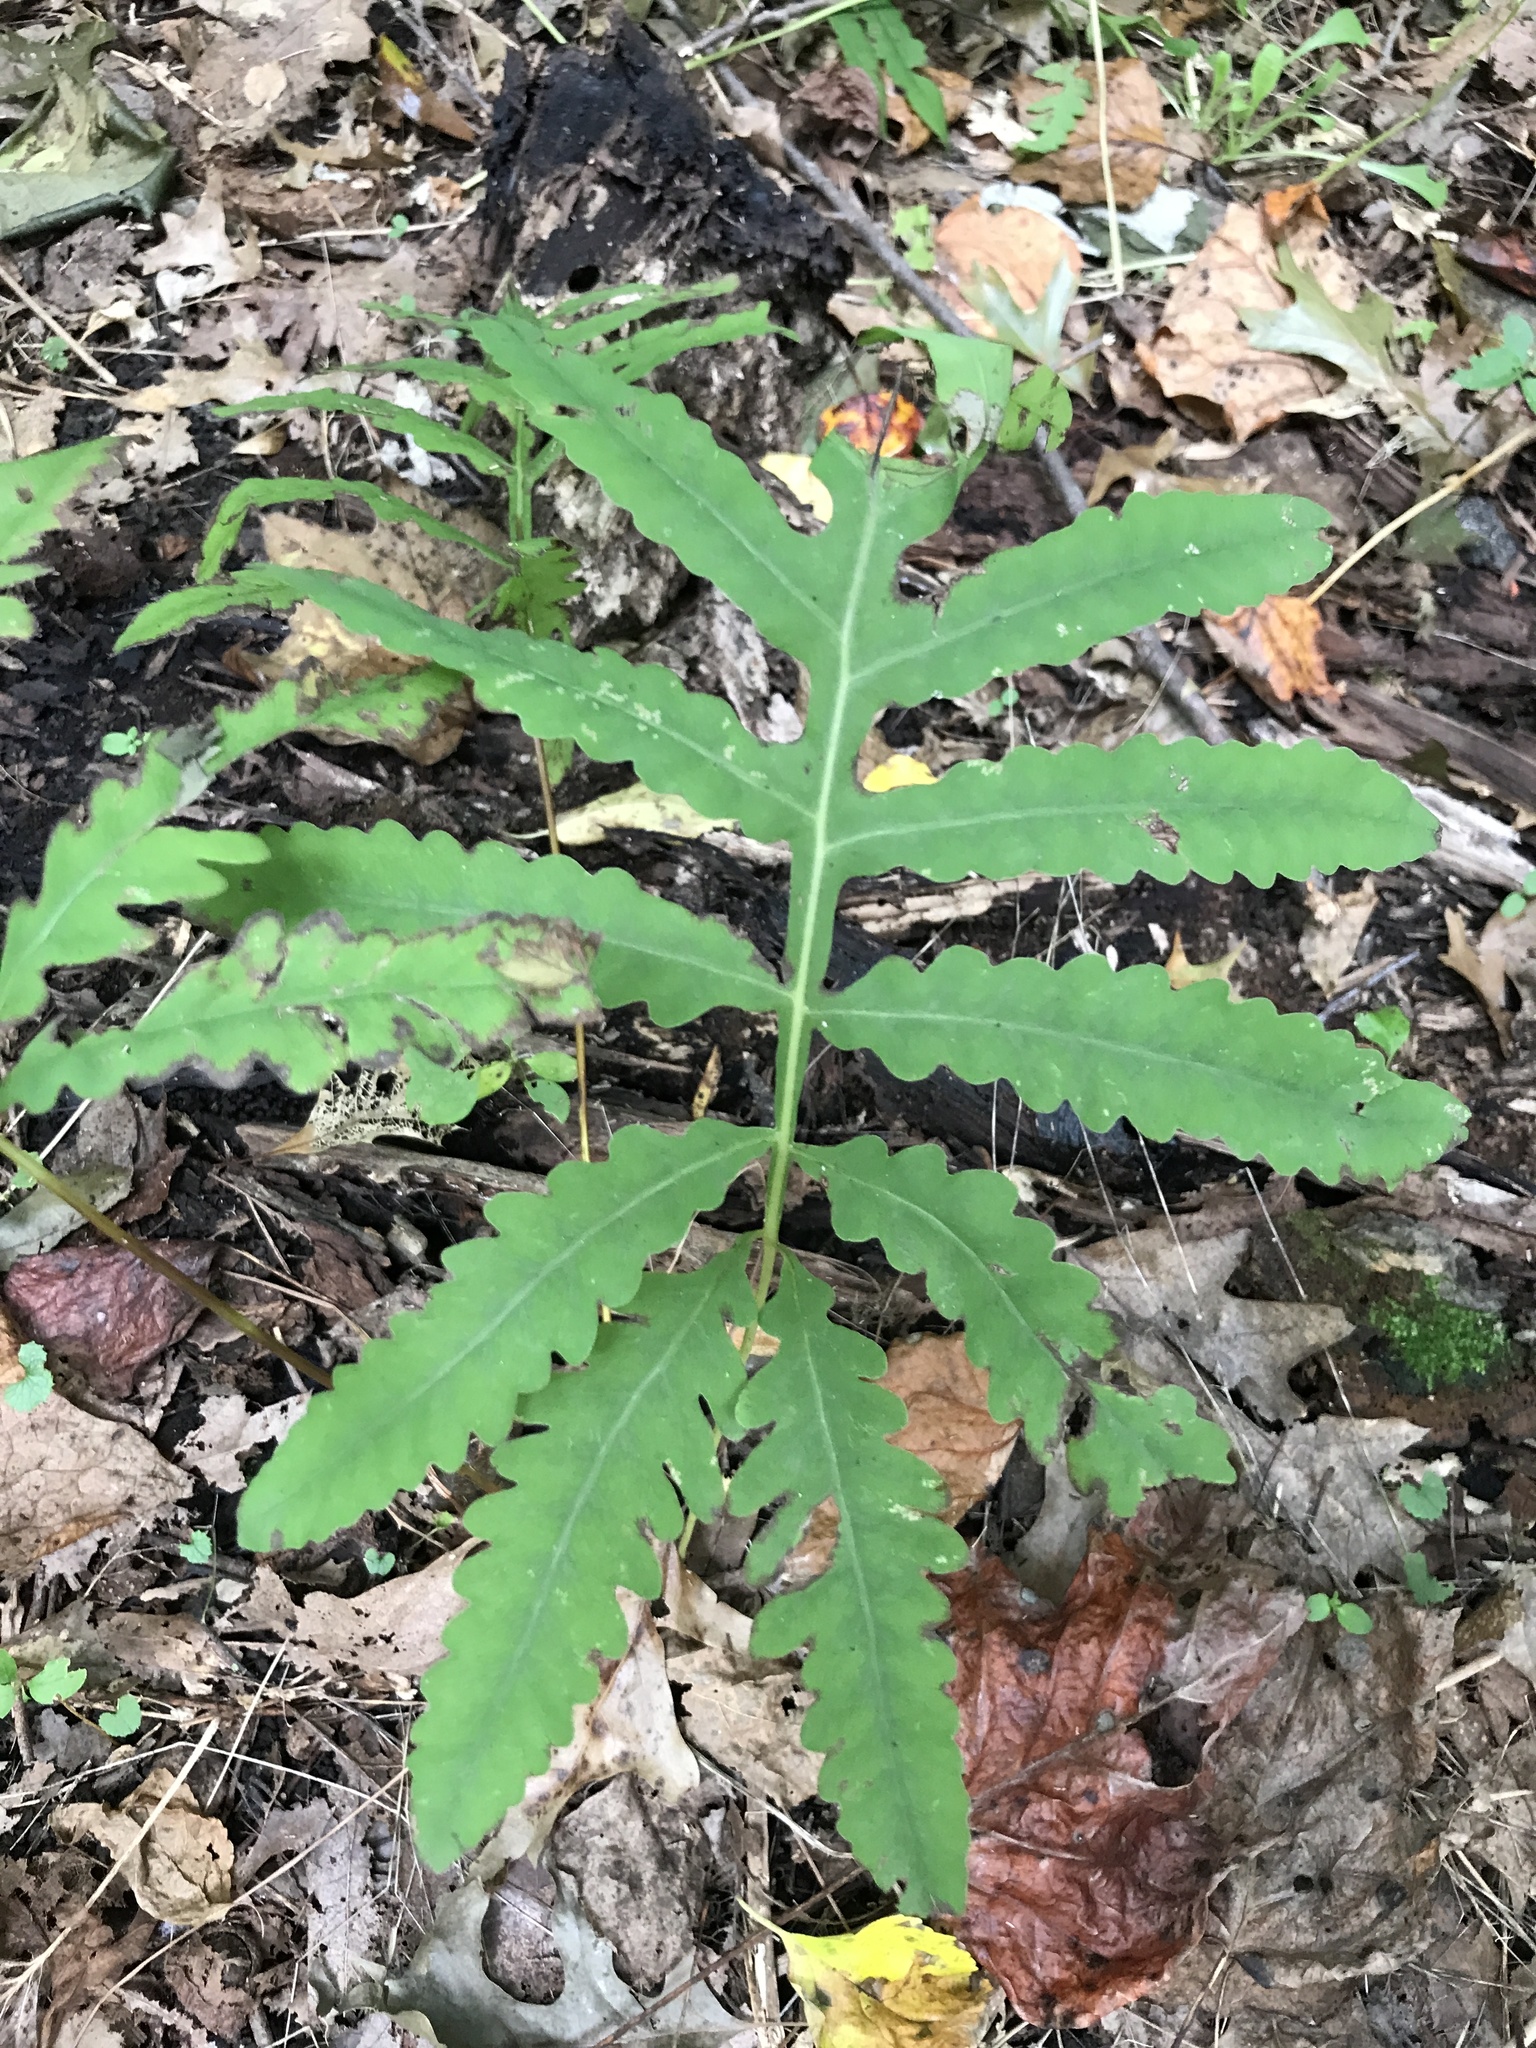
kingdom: Plantae
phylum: Tracheophyta
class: Polypodiopsida
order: Polypodiales
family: Onocleaceae
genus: Onoclea
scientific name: Onoclea sensibilis
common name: Sensitive fern
